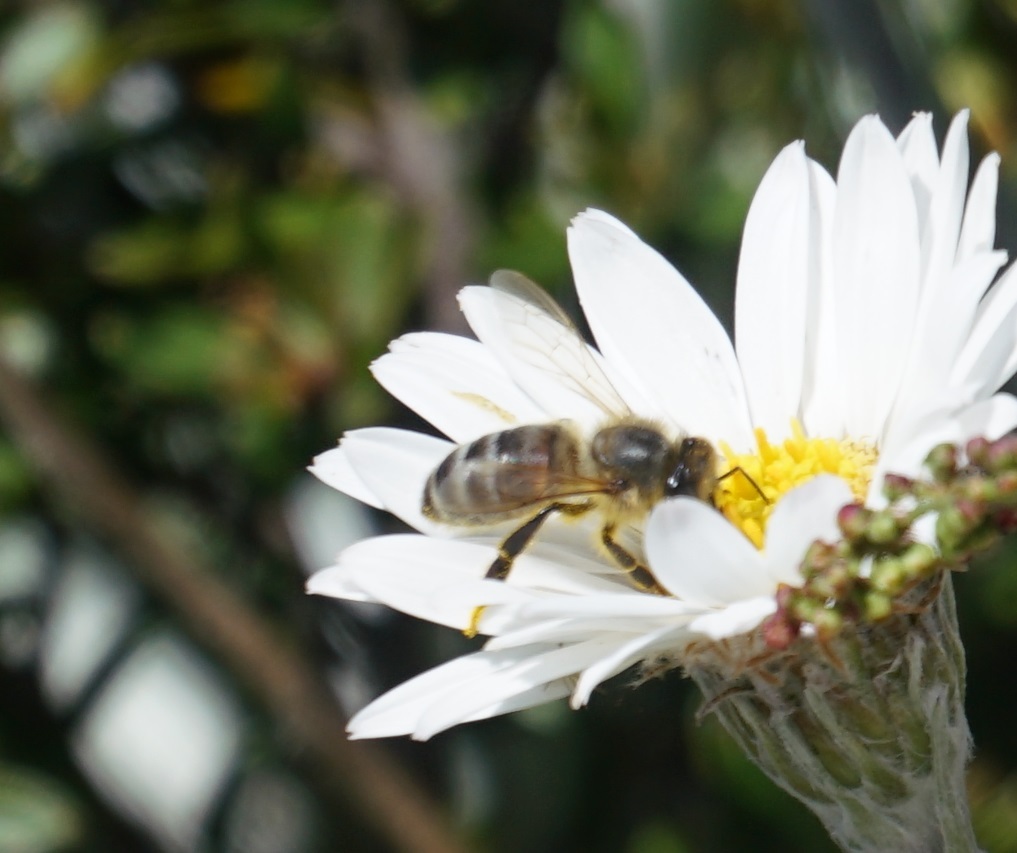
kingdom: Animalia
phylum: Arthropoda
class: Insecta
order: Hymenoptera
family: Apidae
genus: Apis
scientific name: Apis mellifera
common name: Honey bee
